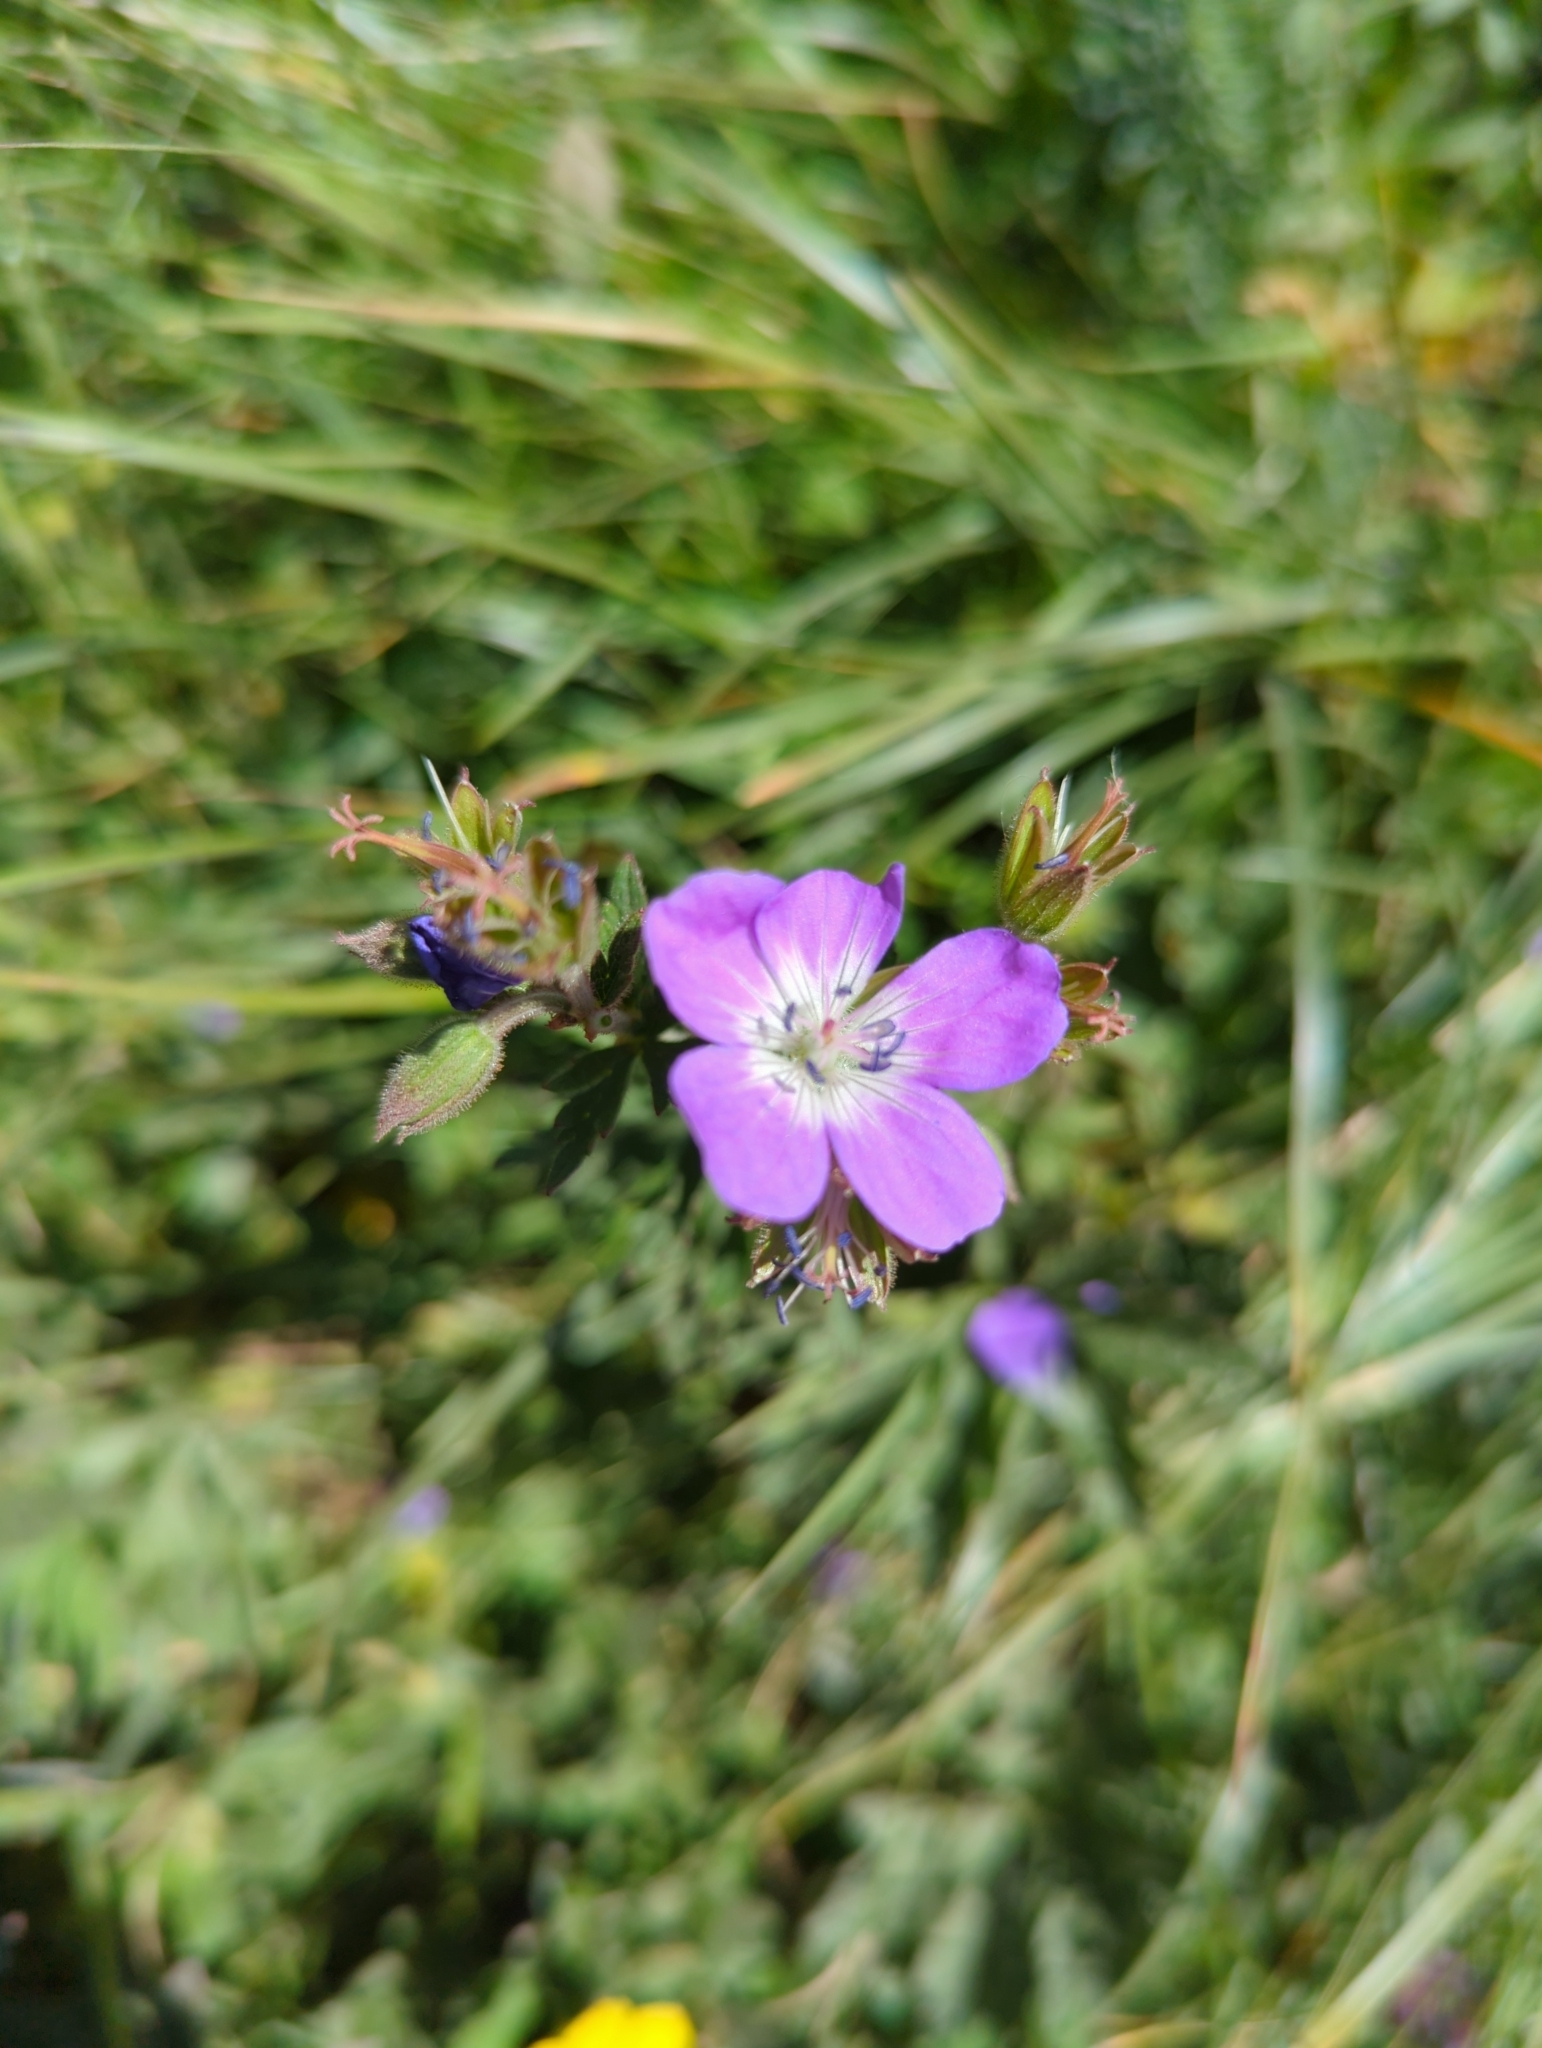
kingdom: Plantae
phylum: Tracheophyta
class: Magnoliopsida
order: Geraniales
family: Geraniaceae
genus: Geranium
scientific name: Geranium sylvaticum
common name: Wood crane's-bill
